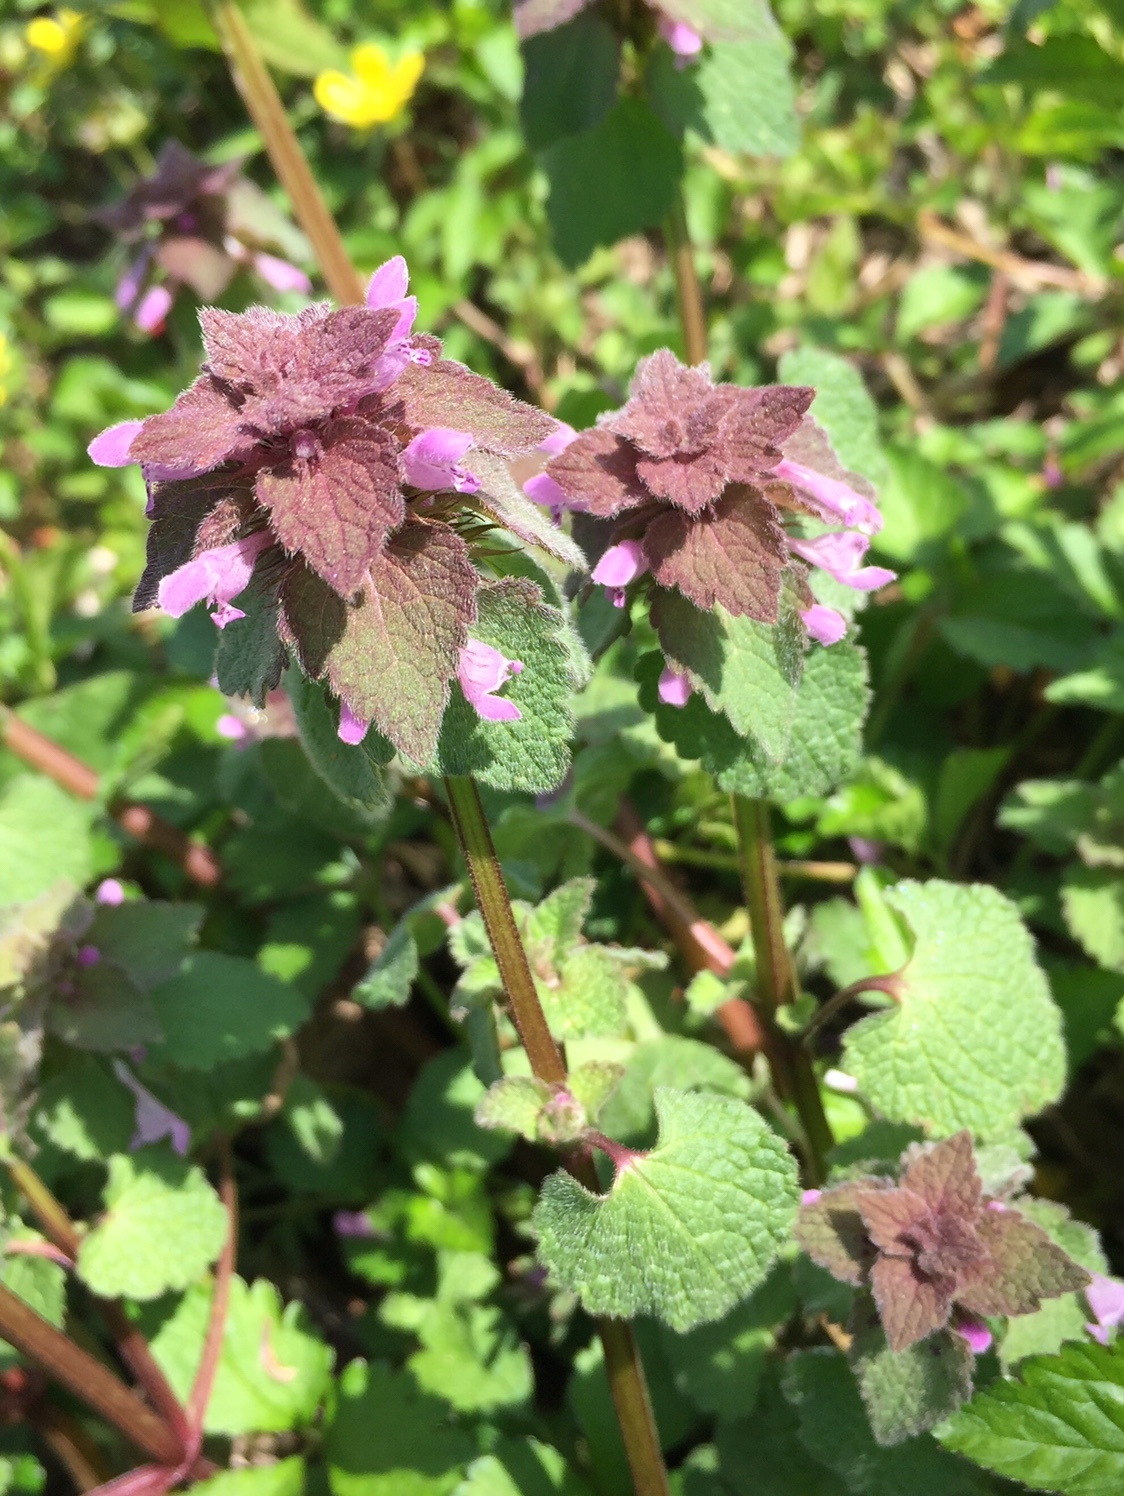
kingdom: Plantae
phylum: Tracheophyta
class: Magnoliopsida
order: Lamiales
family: Lamiaceae
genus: Lamium
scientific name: Lamium purpureum
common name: Red dead-nettle
